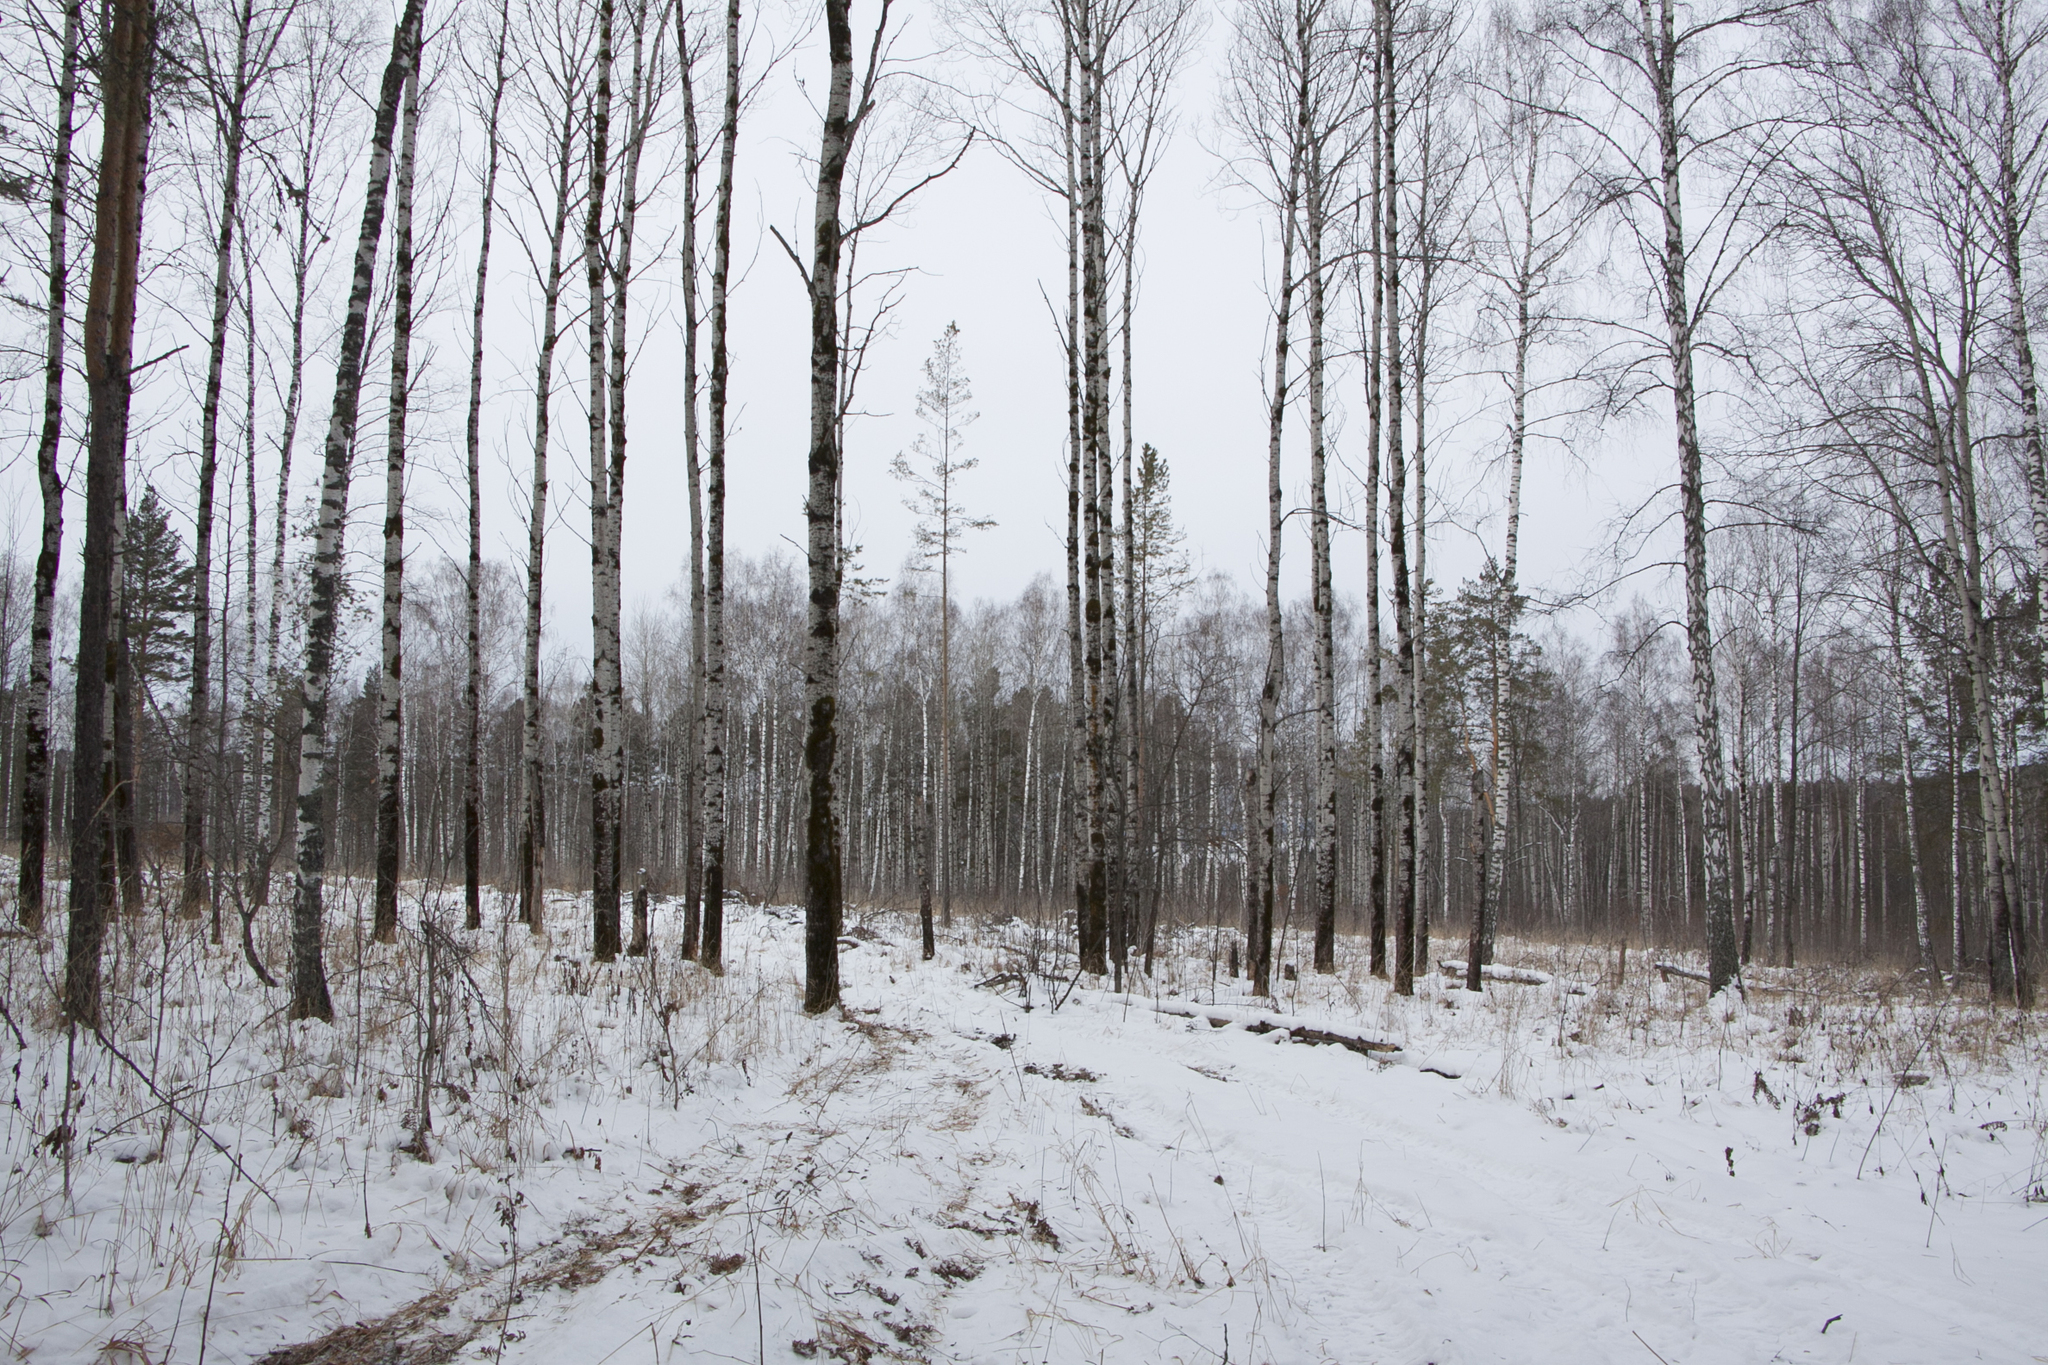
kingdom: Plantae
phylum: Tracheophyta
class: Magnoliopsida
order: Malpighiales
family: Salicaceae
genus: Populus
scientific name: Populus tremula
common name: European aspen
